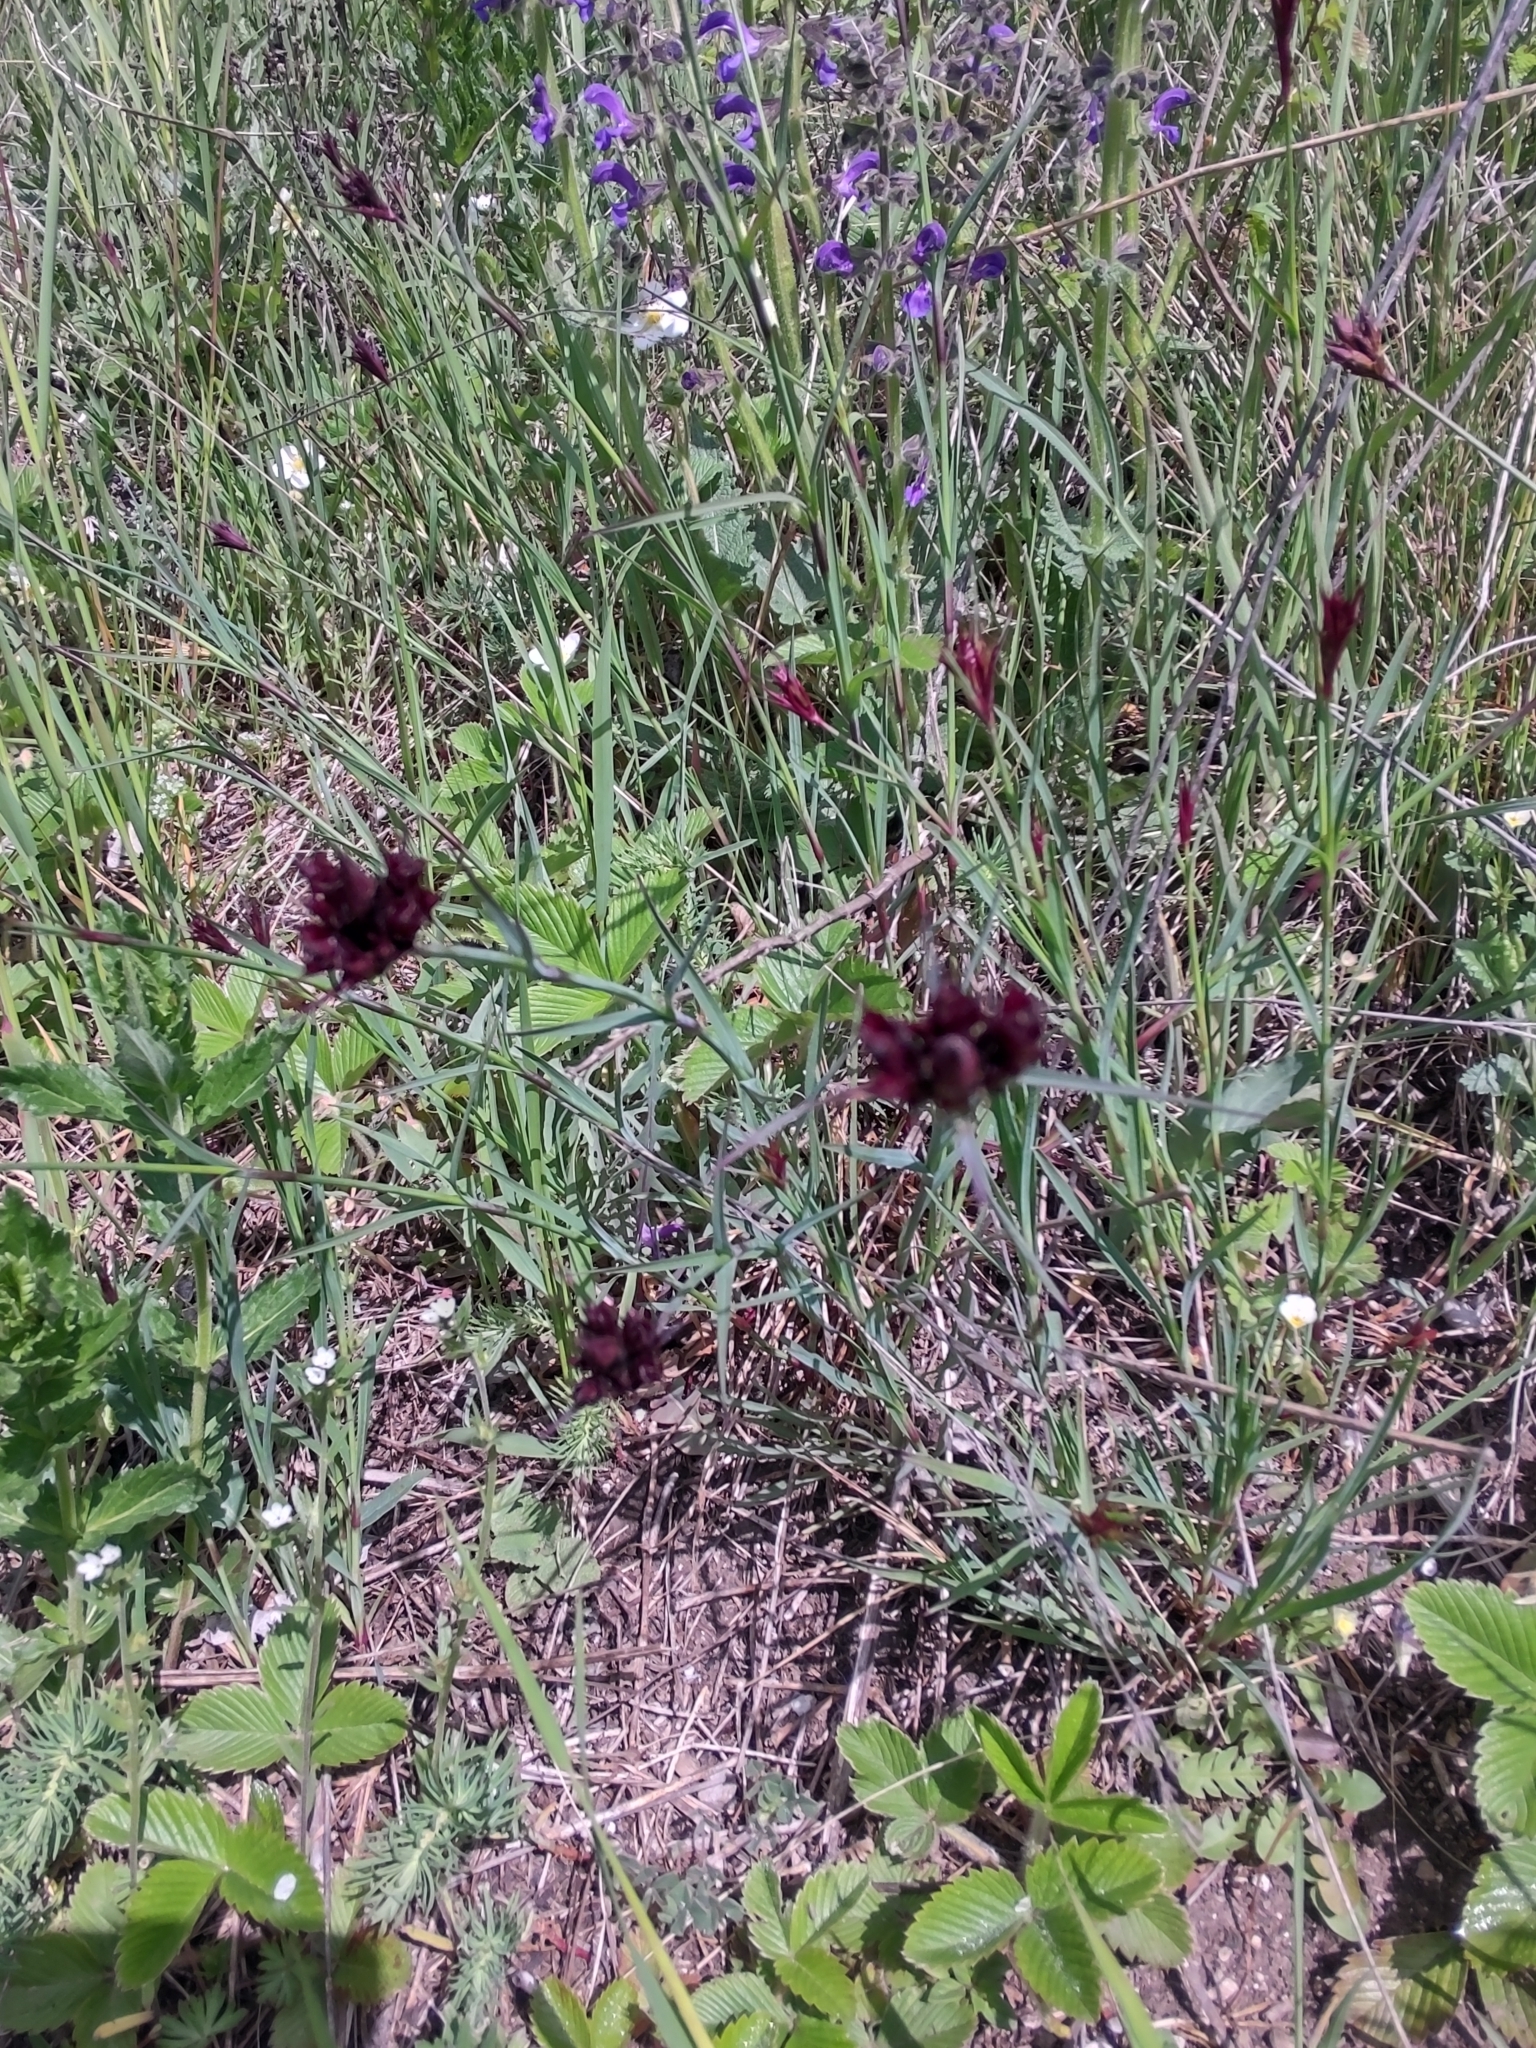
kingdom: Plantae
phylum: Tracheophyta
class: Magnoliopsida
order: Caryophyllales
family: Caryophyllaceae
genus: Dianthus
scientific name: Dianthus carthusianorum
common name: Carthusian pink
